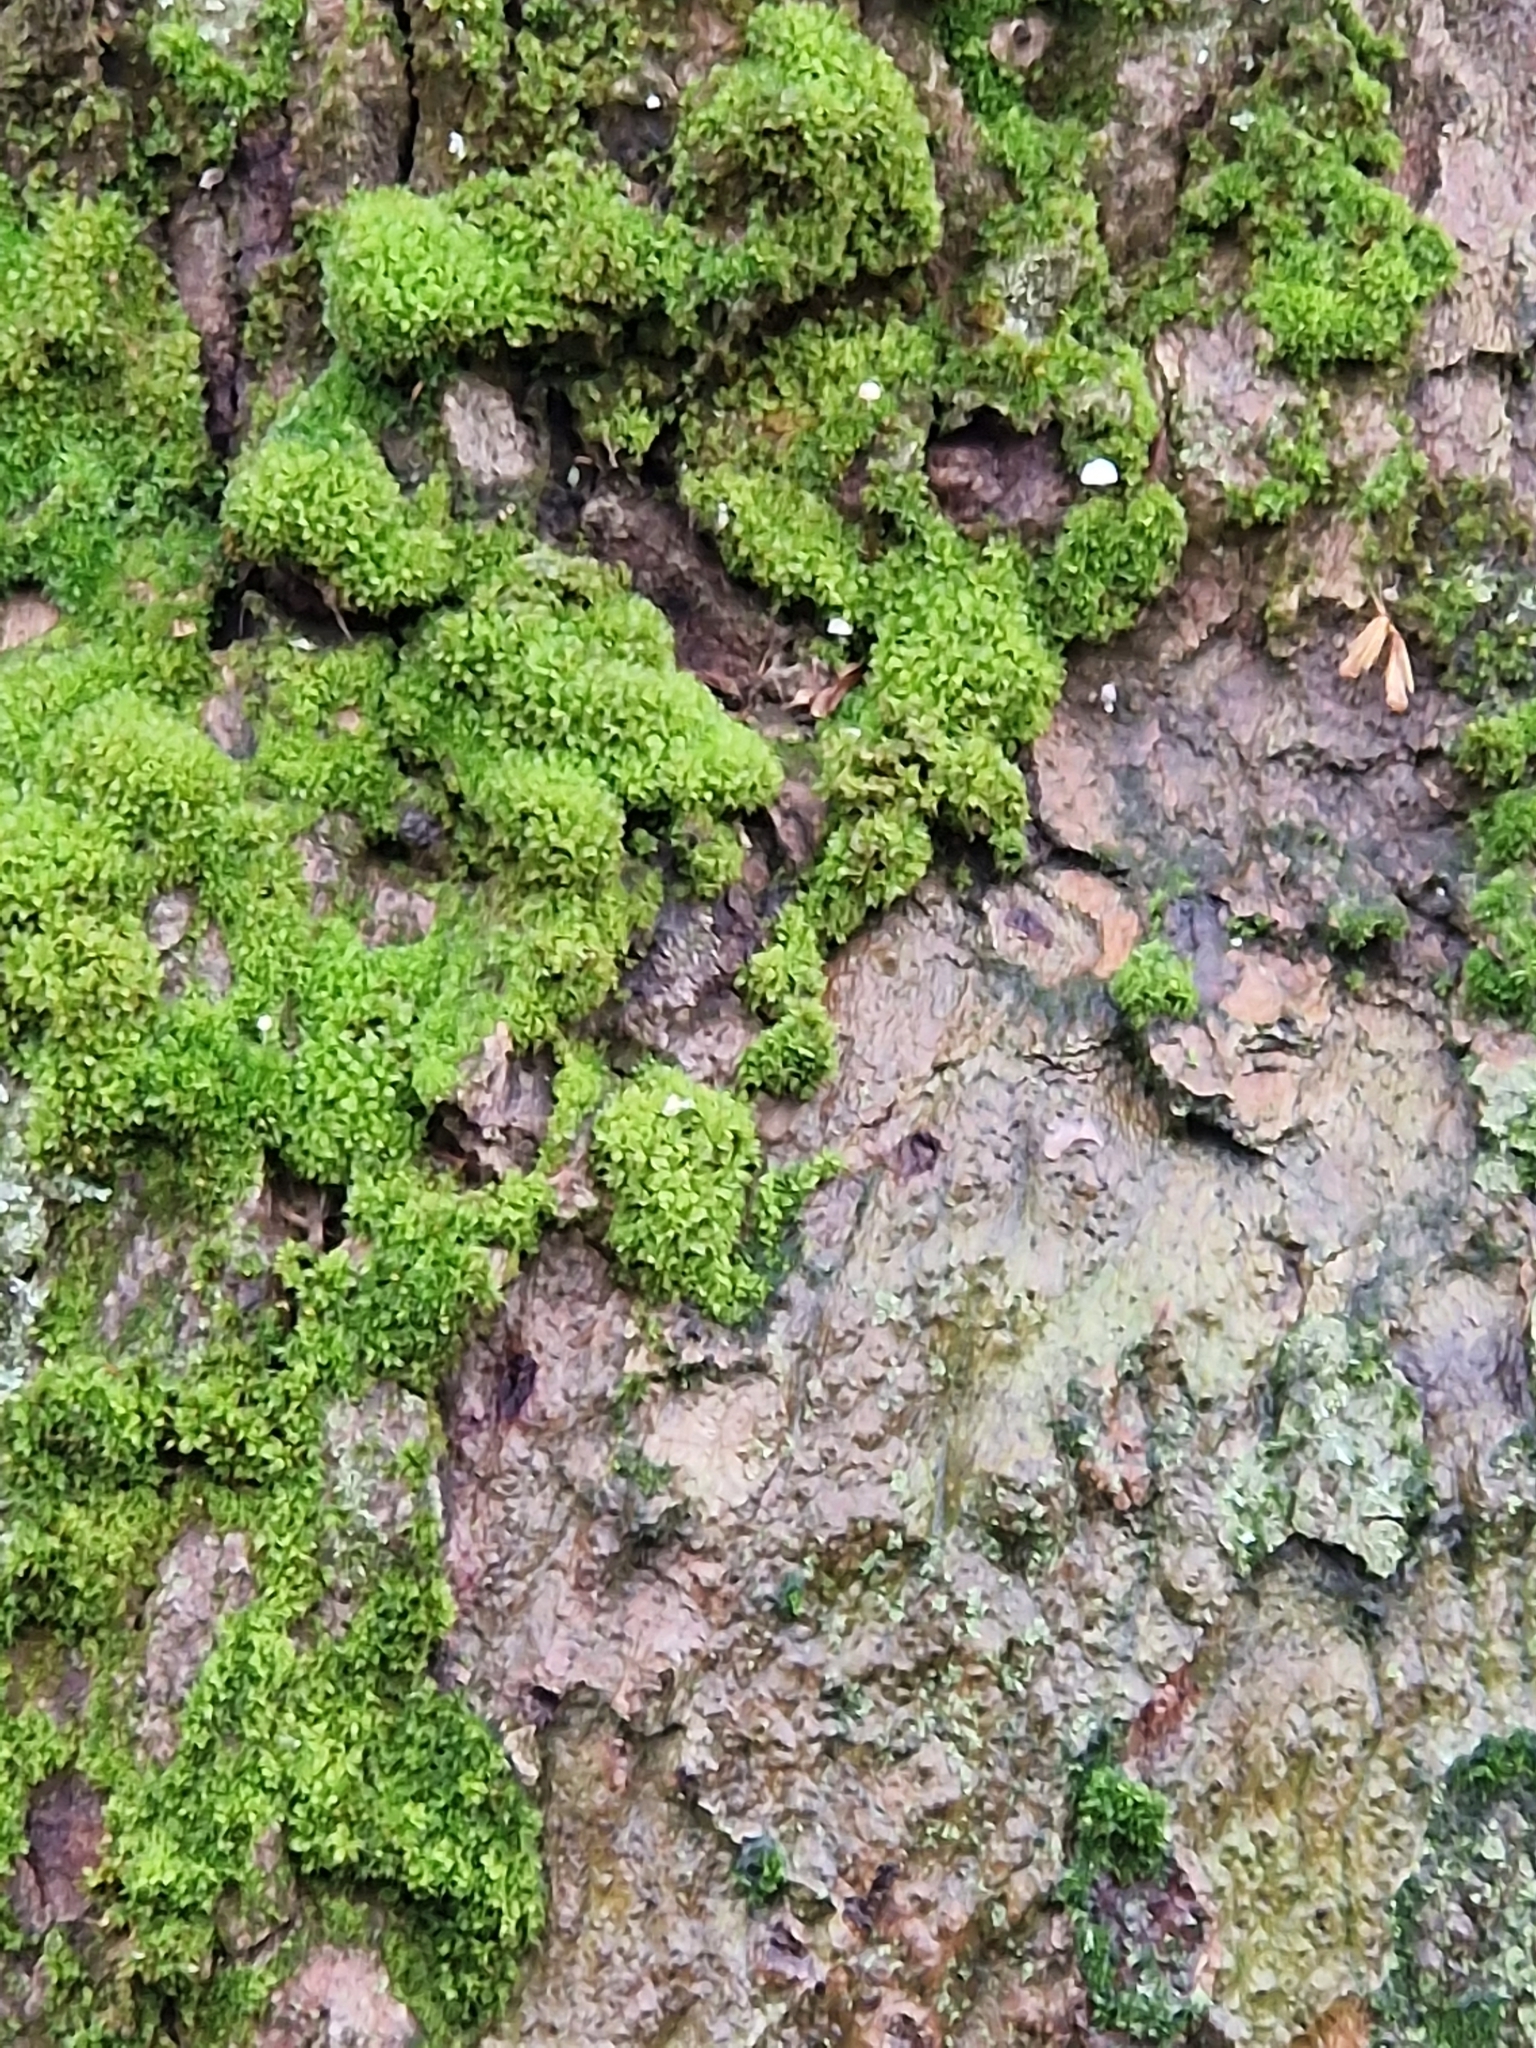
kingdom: Plantae
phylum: Bryophyta
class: Bryopsida
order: Pottiales
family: Pottiaceae
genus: Syntrichia
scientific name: Syntrichia latifolia
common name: Water screw-moss
